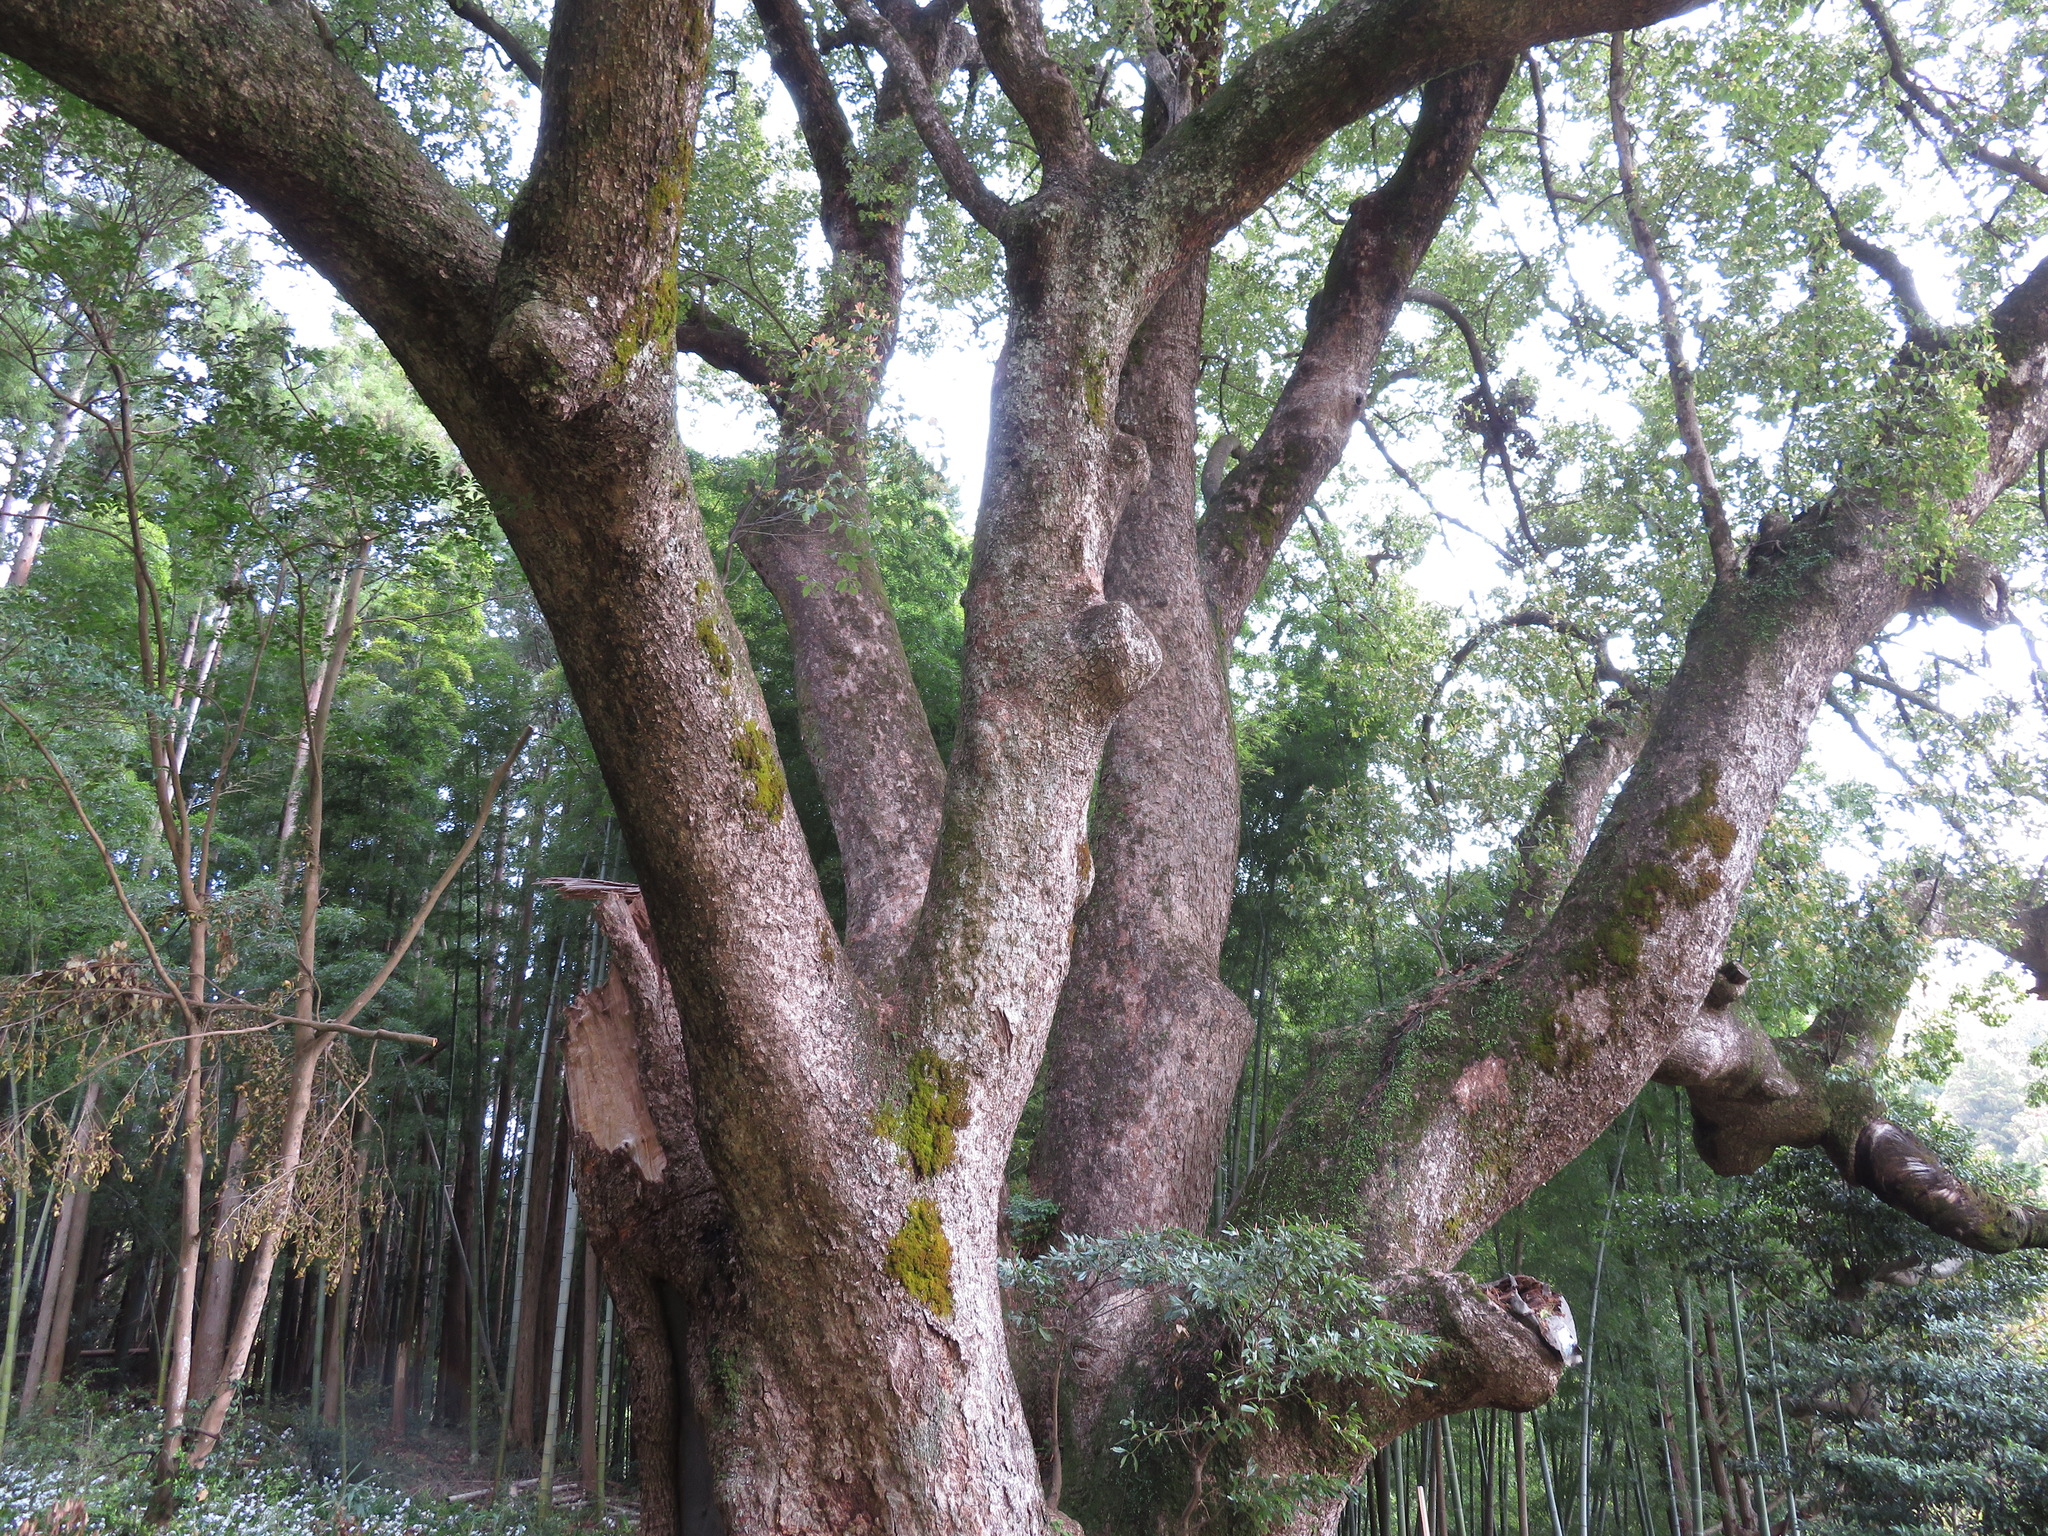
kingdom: Plantae
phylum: Tracheophyta
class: Magnoliopsida
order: Laurales
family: Lauraceae
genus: Cinnamomum
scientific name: Cinnamomum camphora
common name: Camphortree
